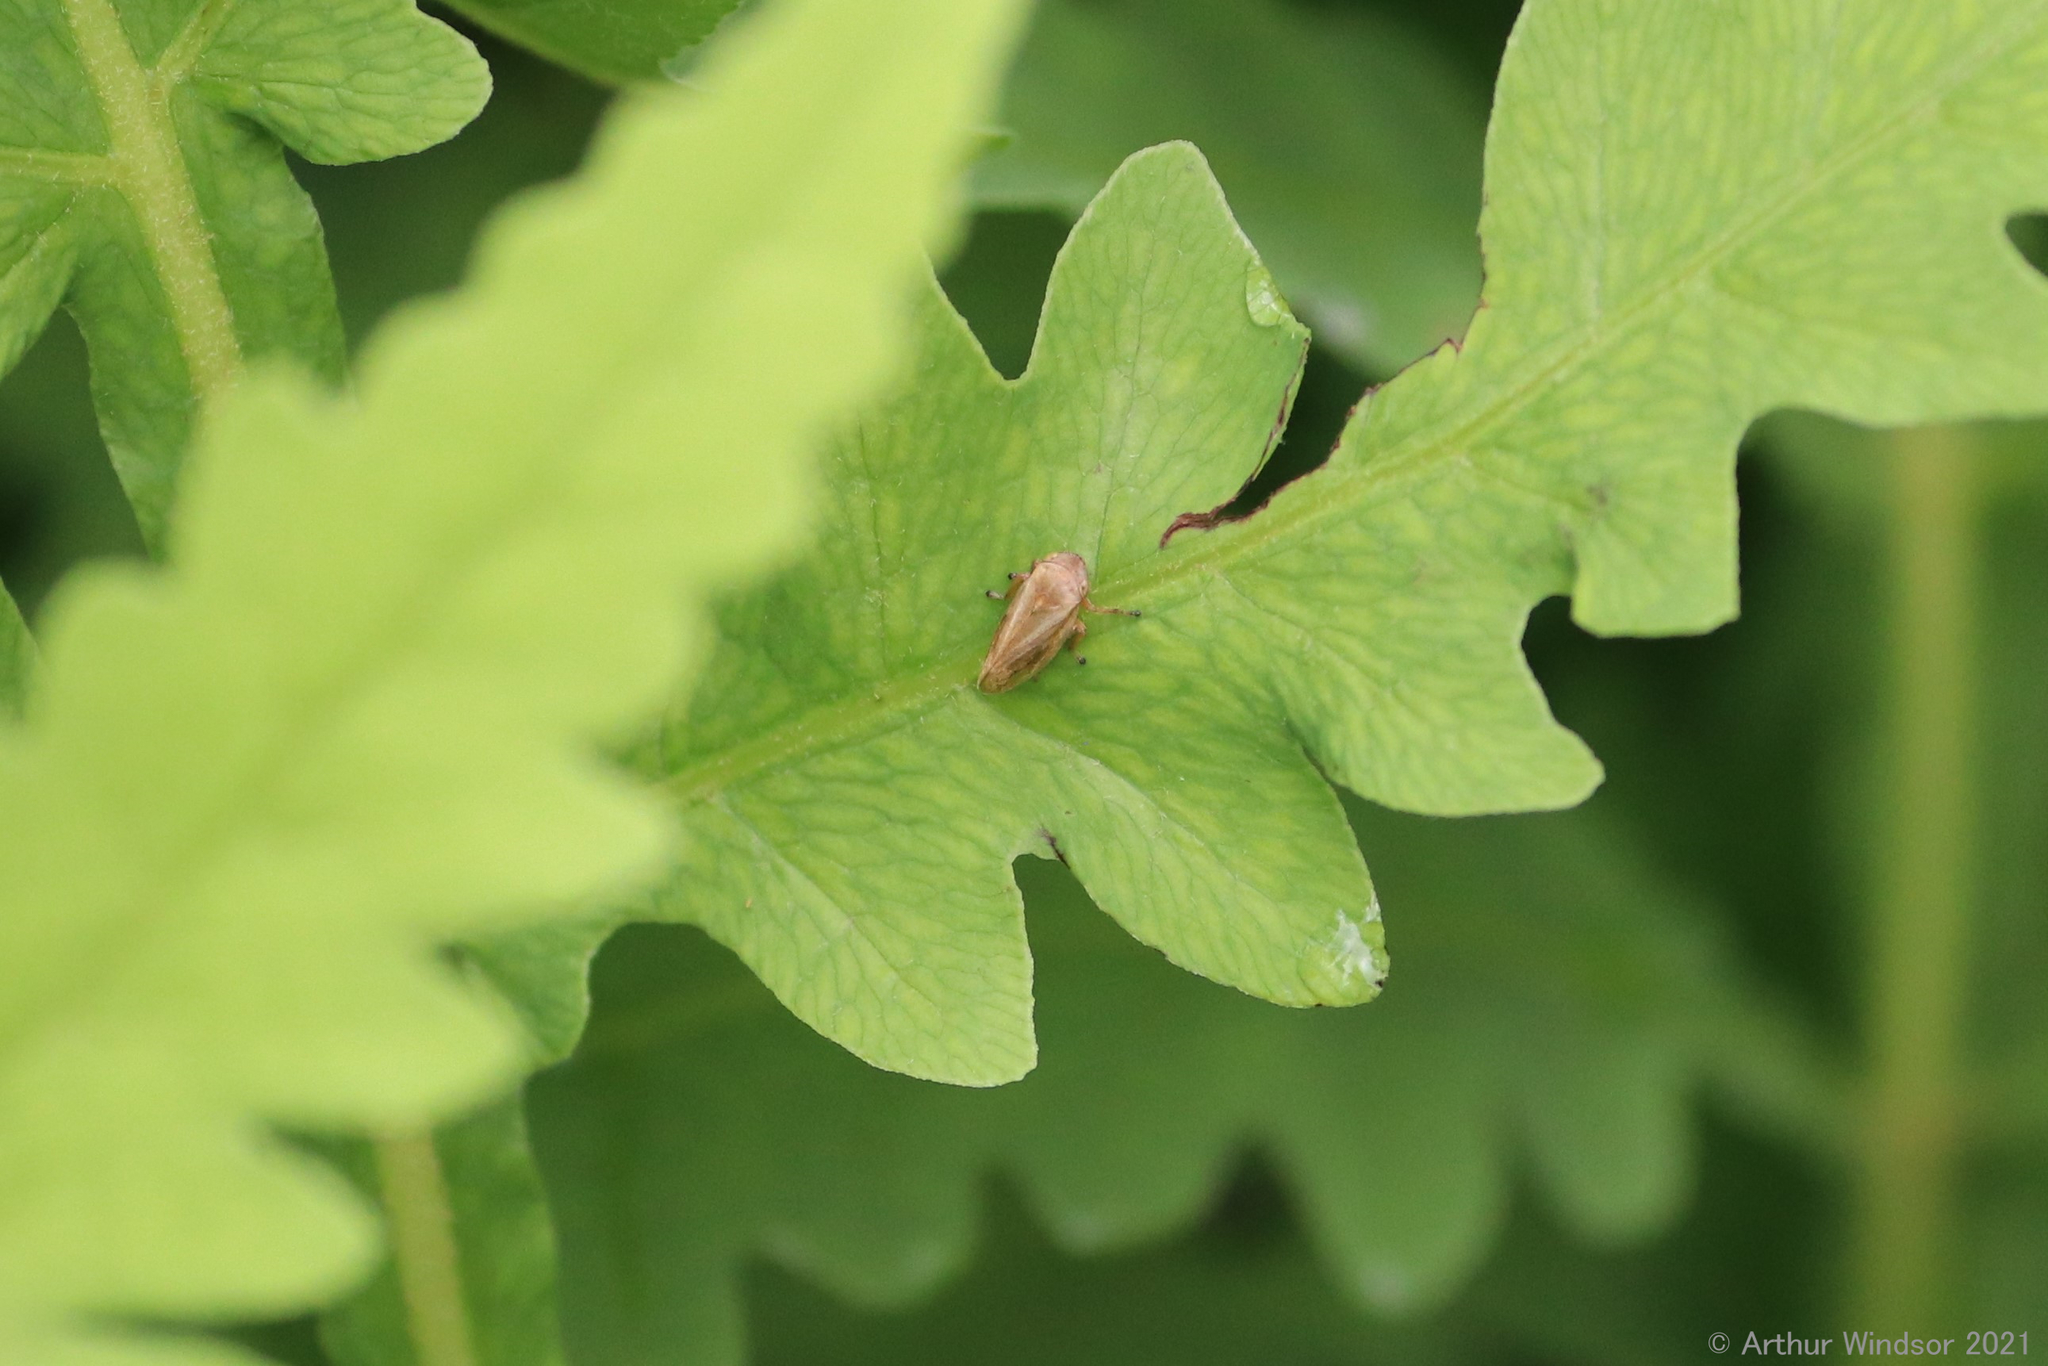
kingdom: Animalia
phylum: Arthropoda
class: Insecta
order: Hemiptera
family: Aphrophoridae
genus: Philaenus
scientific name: Philaenus spumarius
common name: Meadow spittlebug
